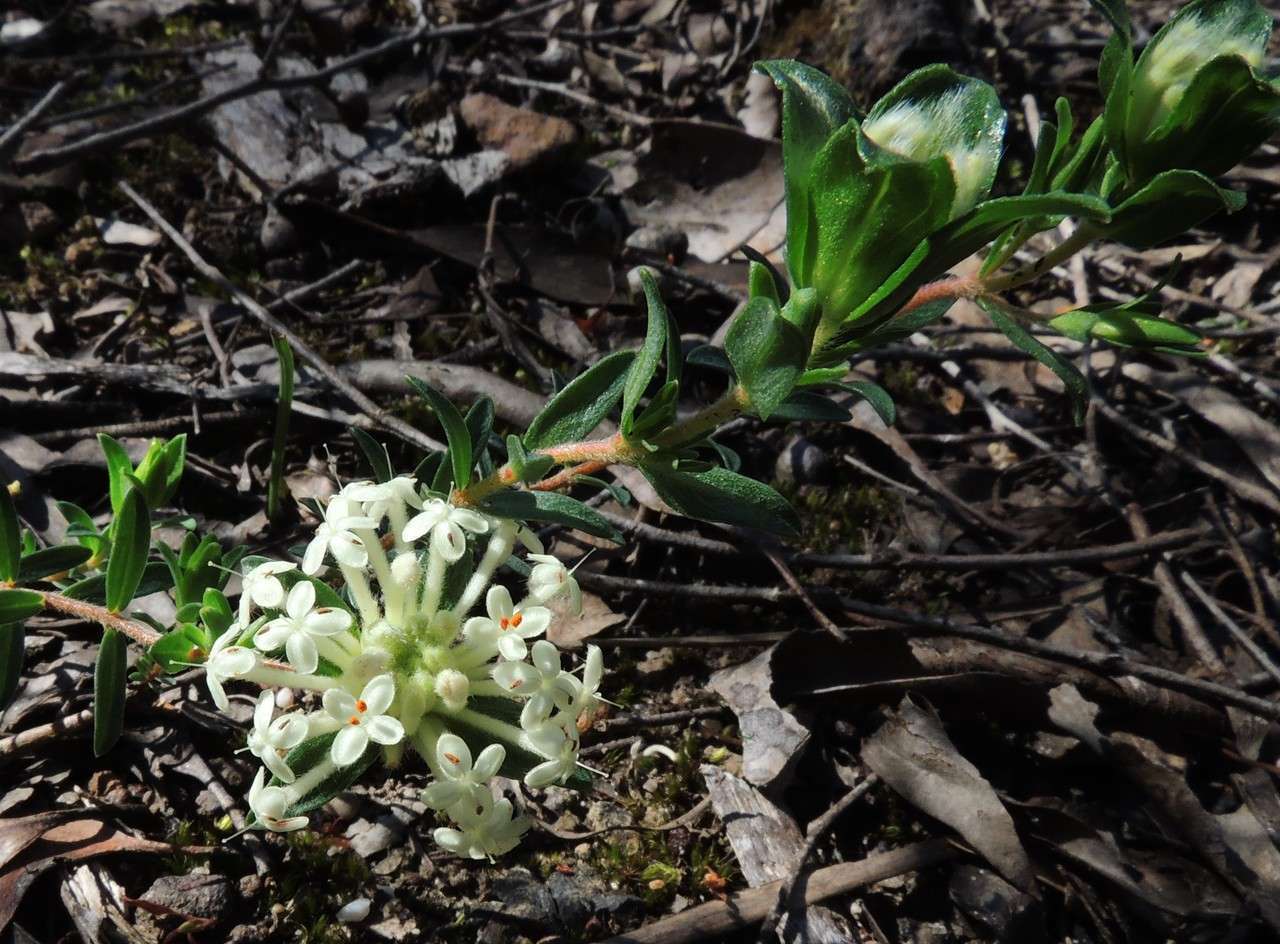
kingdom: Plantae
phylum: Tracheophyta
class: Magnoliopsida
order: Malvales
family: Thymelaeaceae
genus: Pimelea
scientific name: Pimelea humilis
